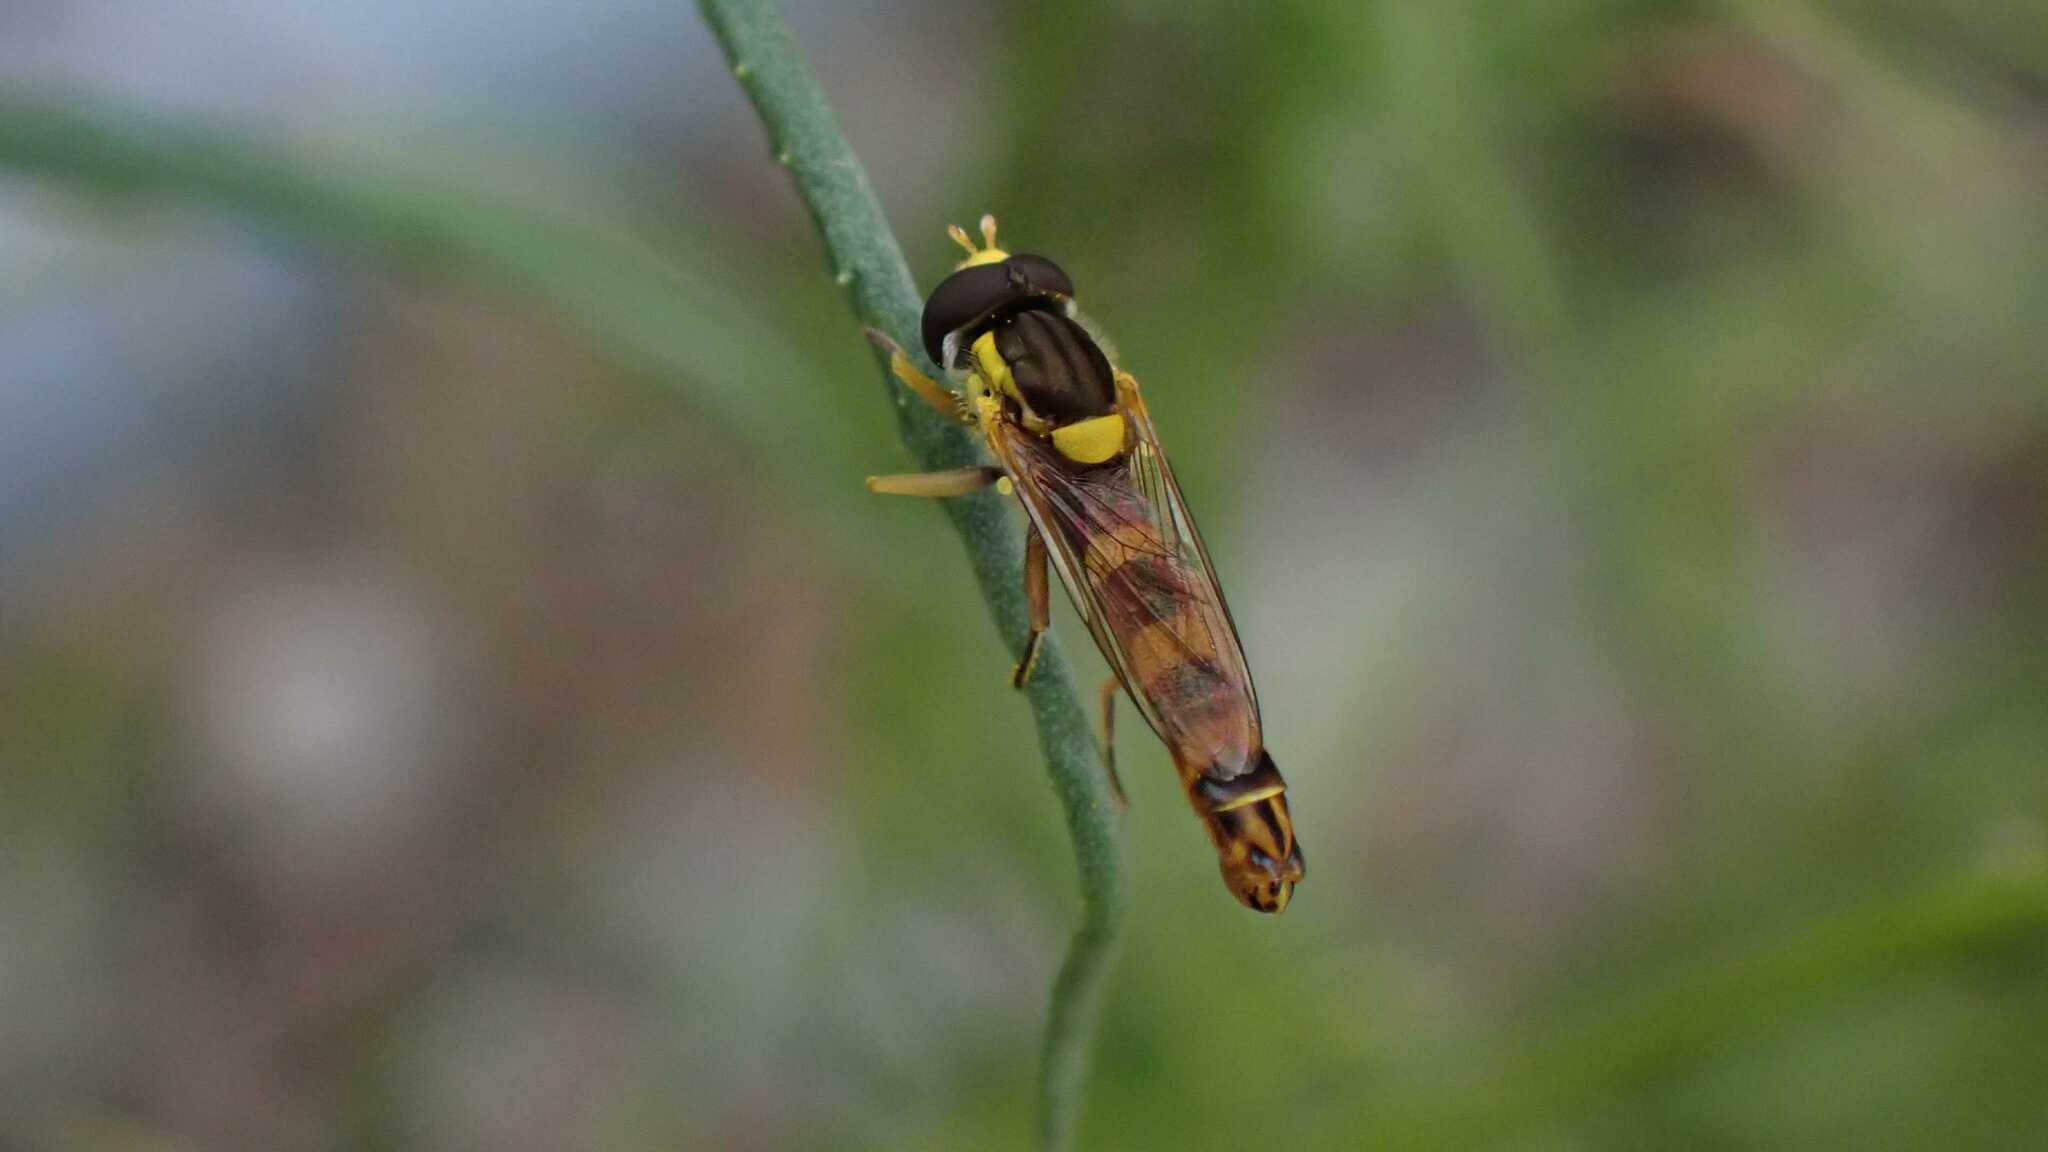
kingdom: Animalia
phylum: Arthropoda
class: Insecta
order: Diptera
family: Syrphidae
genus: Sphaerophoria
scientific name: Sphaerophoria scripta
